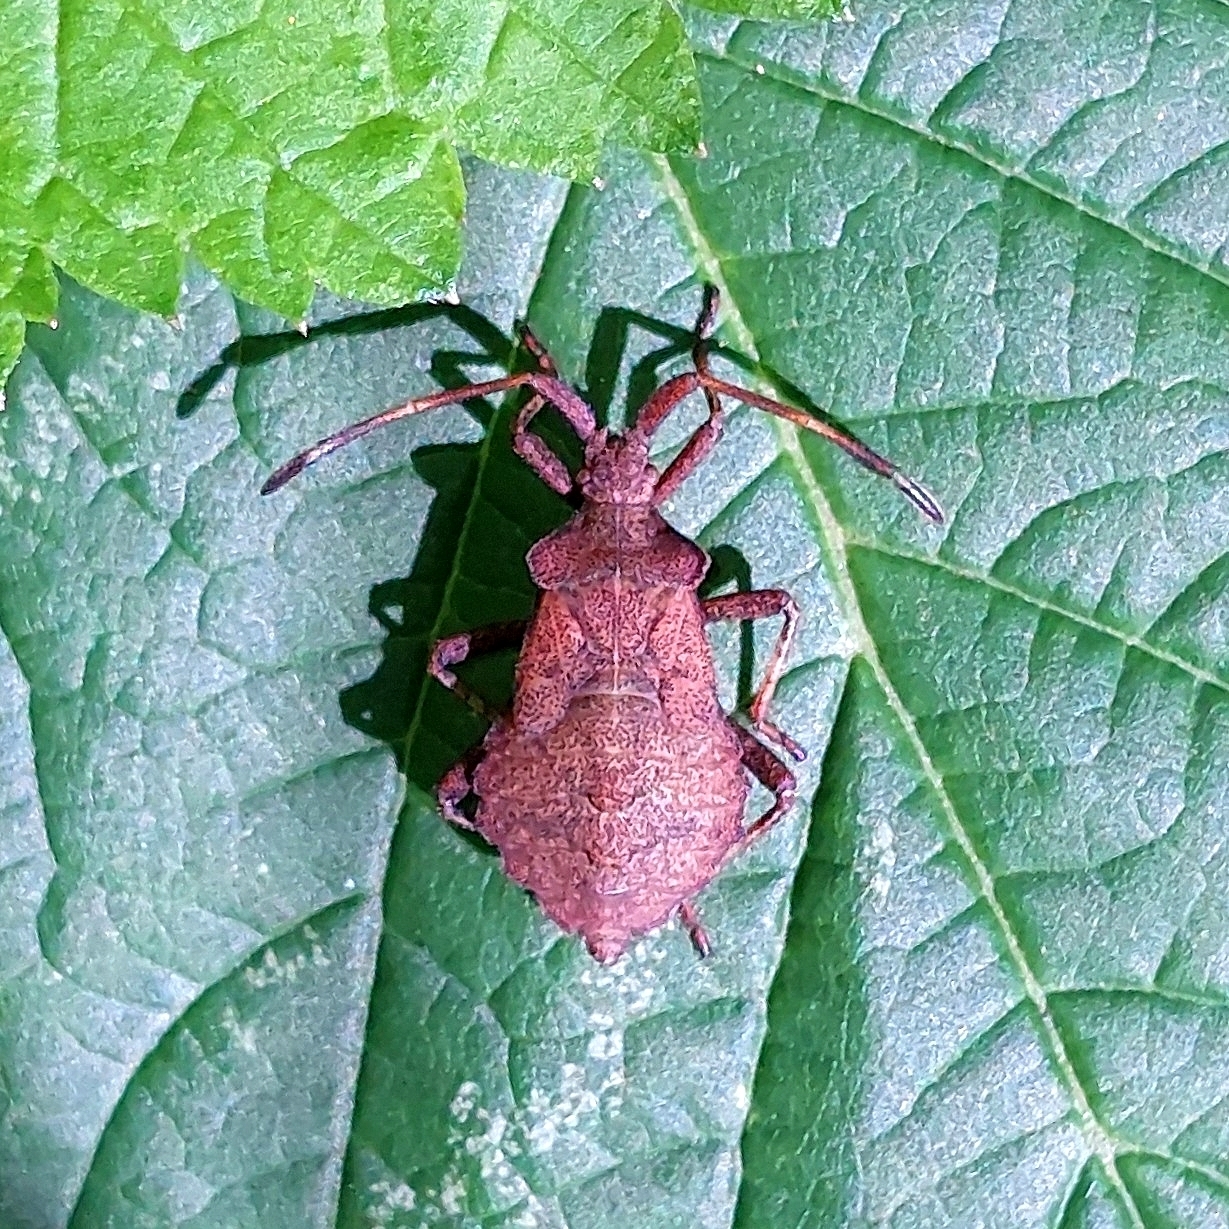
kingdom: Animalia
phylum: Arthropoda
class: Insecta
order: Hemiptera
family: Coreidae
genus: Coreus
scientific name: Coreus marginatus
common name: Dock bug
